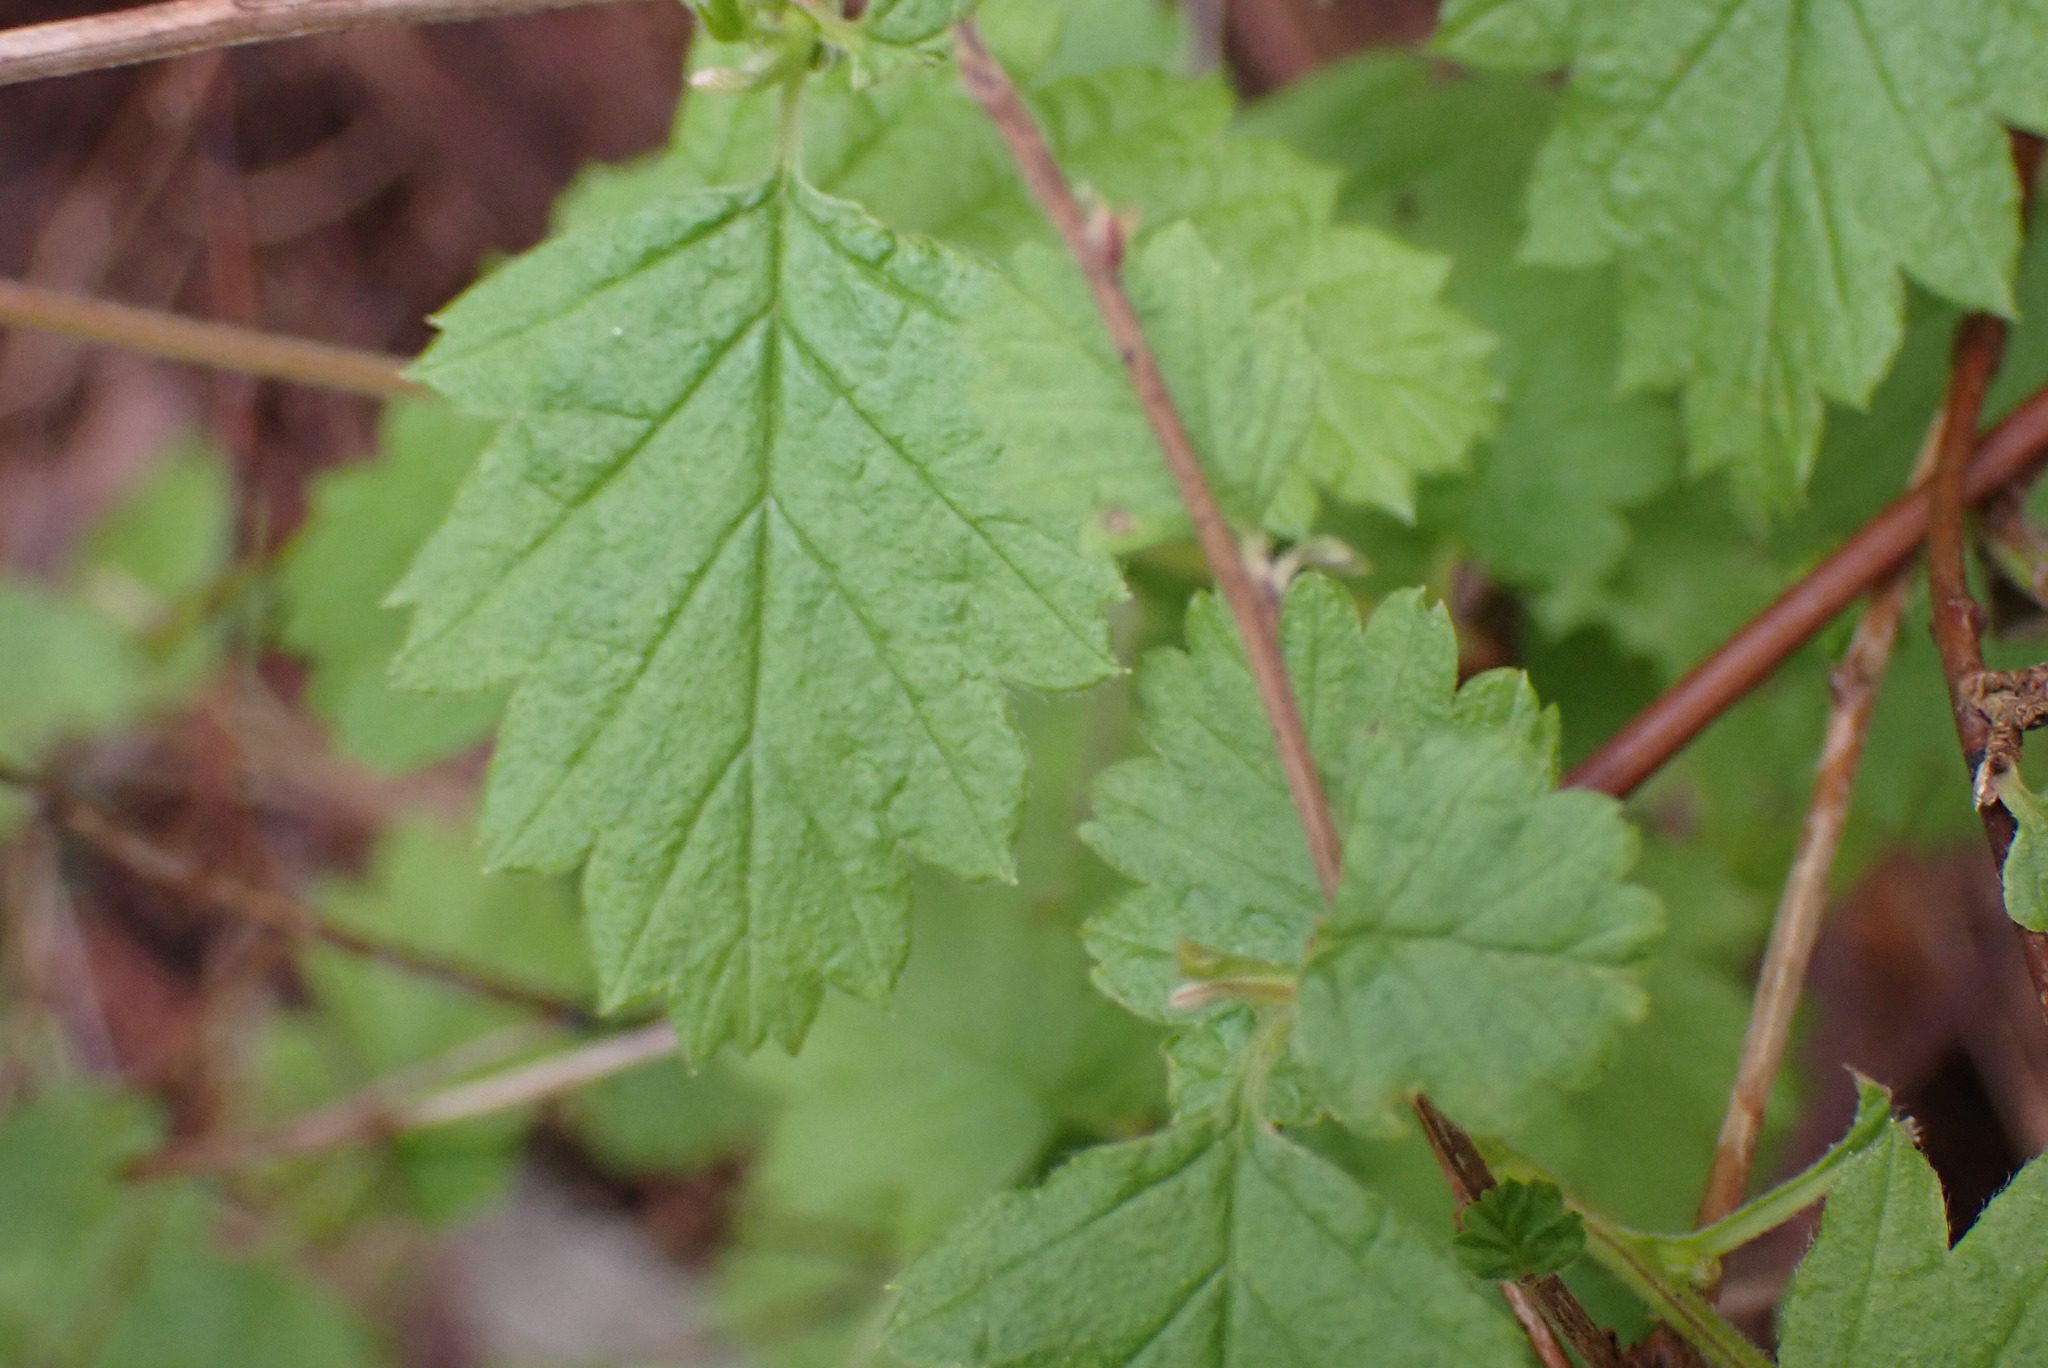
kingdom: Plantae
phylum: Tracheophyta
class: Magnoliopsida
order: Rosales
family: Rosaceae
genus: Holodiscus
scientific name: Holodiscus discolor
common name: Oceanspray
